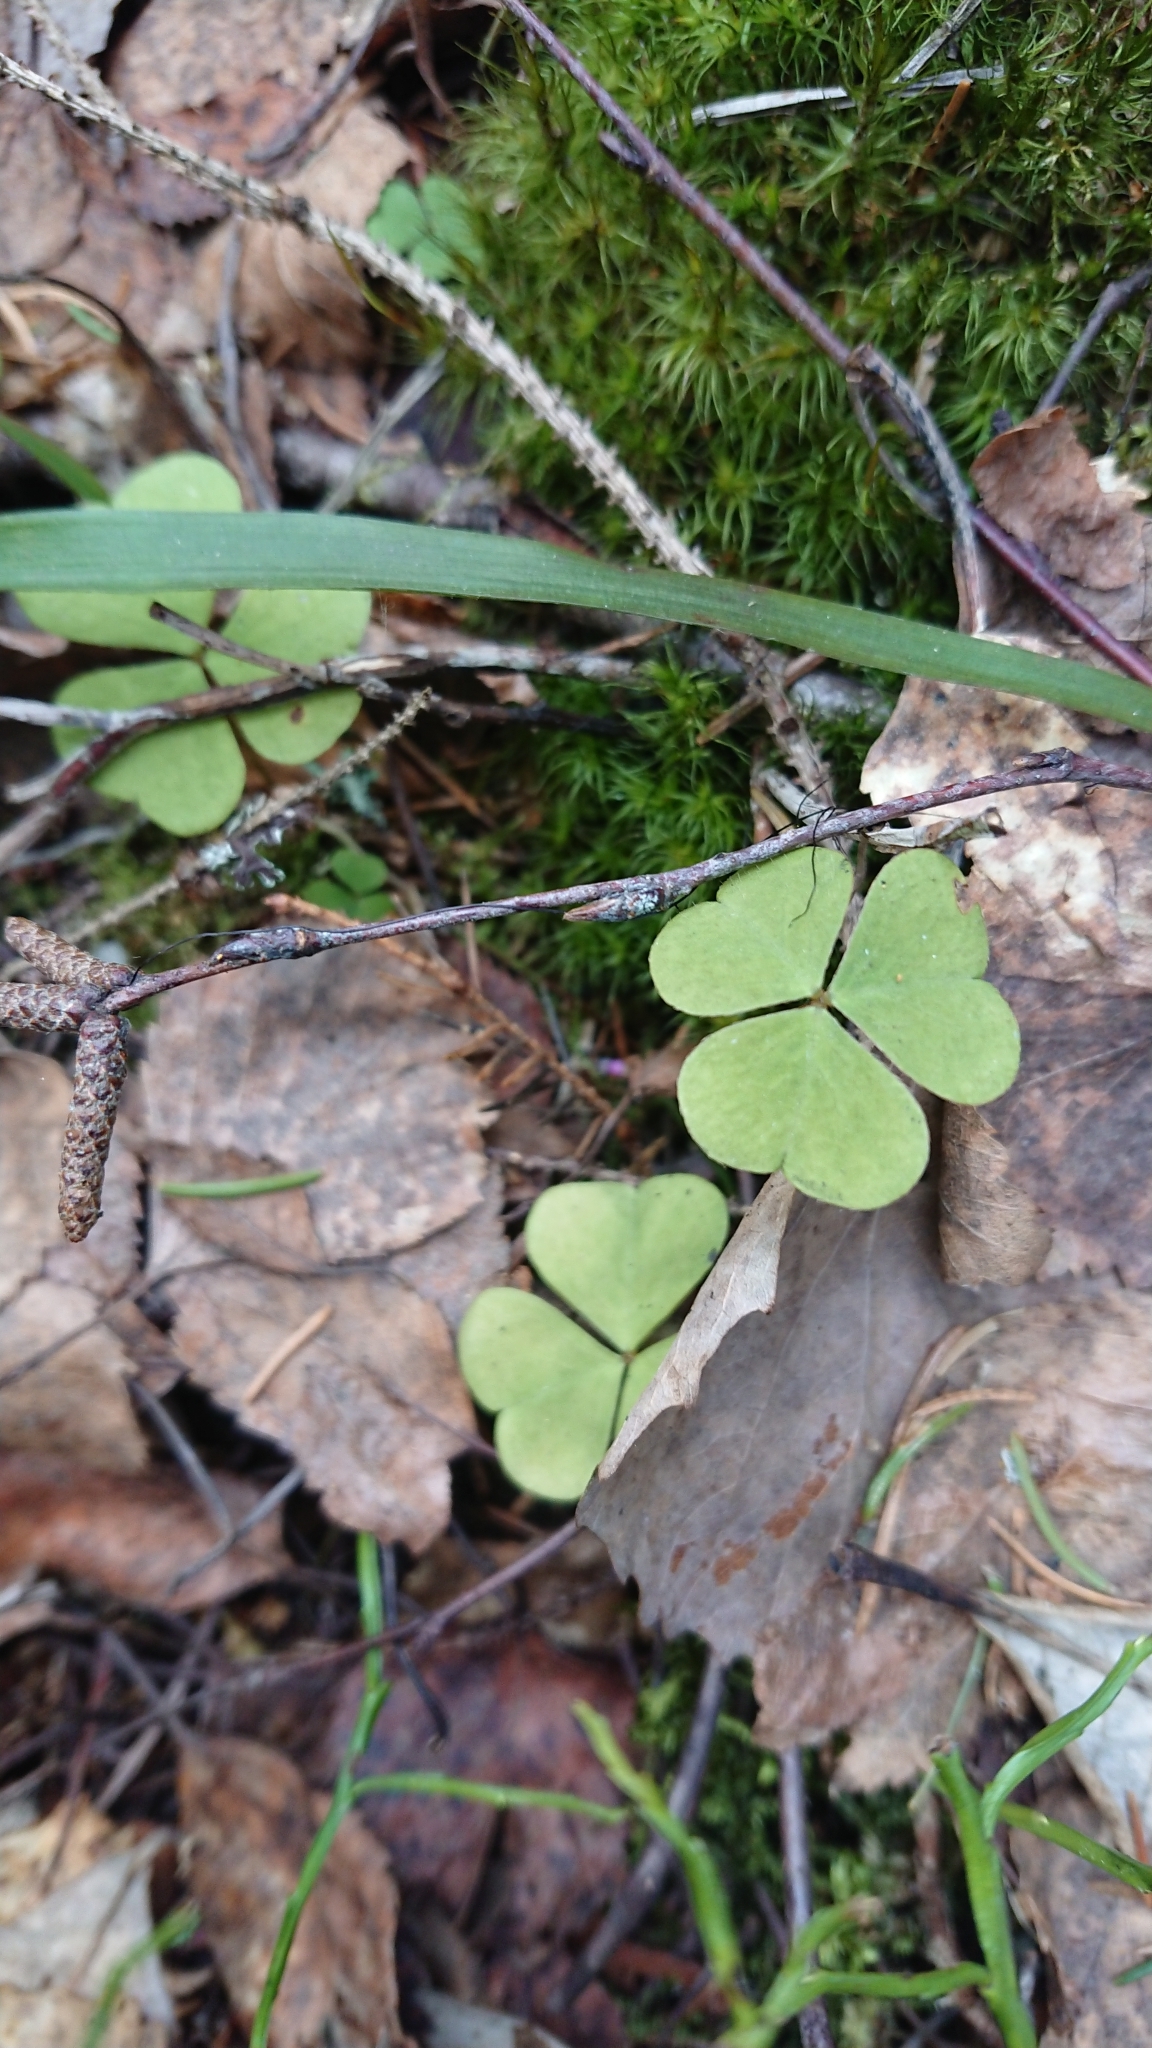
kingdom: Plantae
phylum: Tracheophyta
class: Magnoliopsida
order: Oxalidales
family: Oxalidaceae
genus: Oxalis
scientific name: Oxalis acetosella
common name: Wood-sorrel
